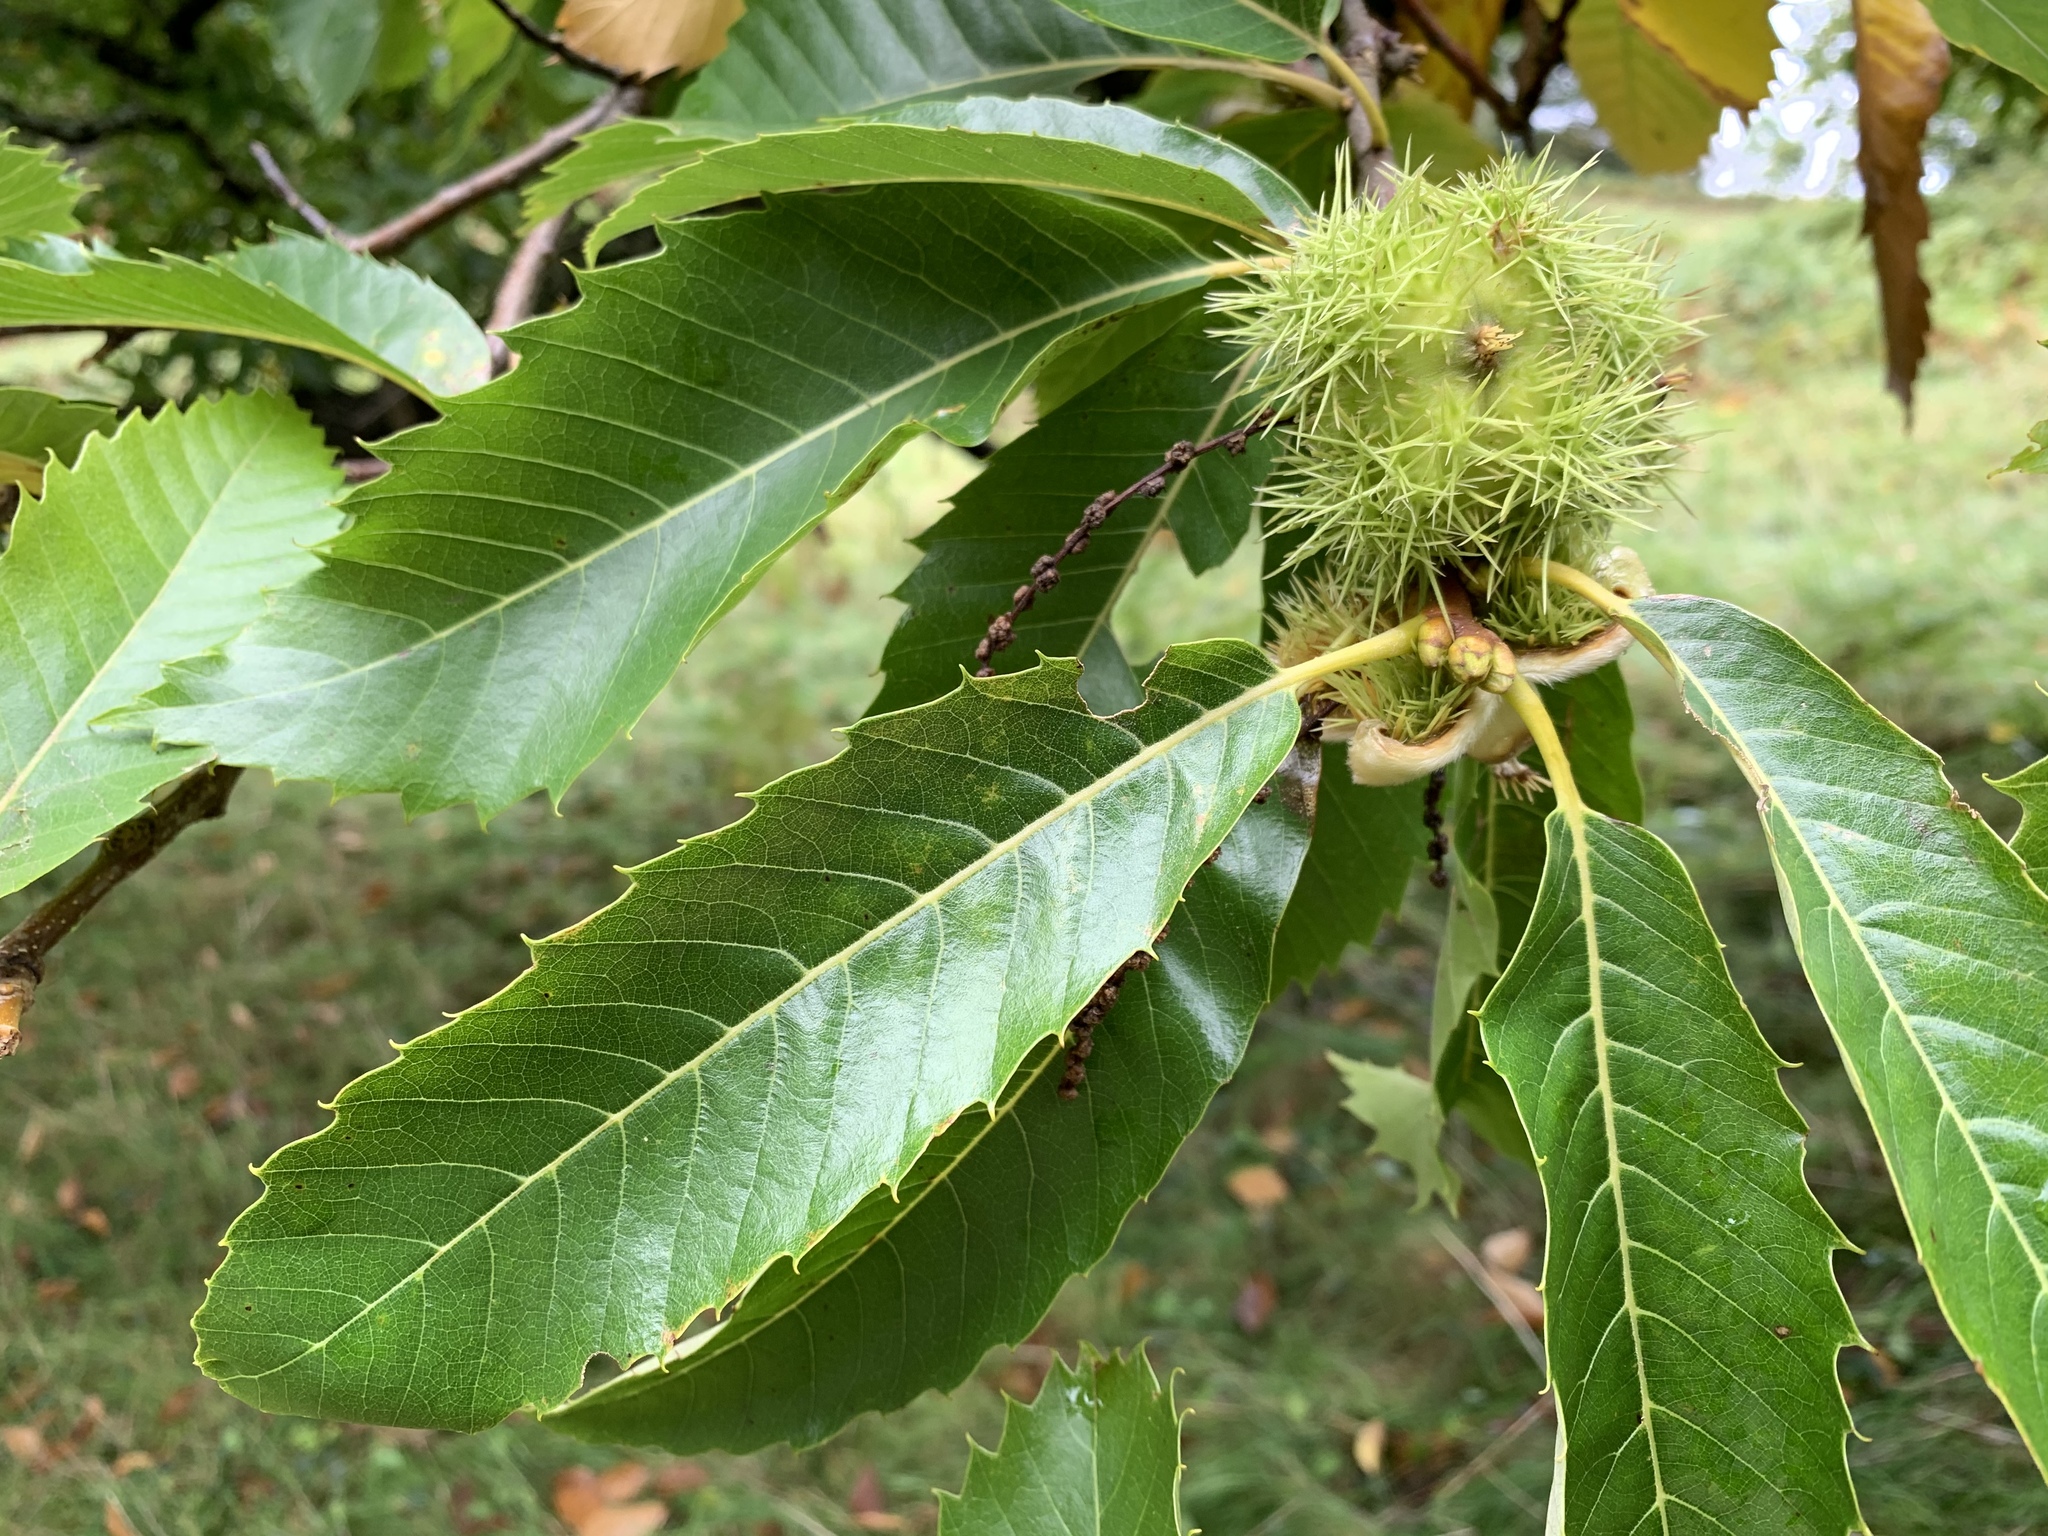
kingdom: Plantae
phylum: Tracheophyta
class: Magnoliopsida
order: Fagales
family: Fagaceae
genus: Castanea
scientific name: Castanea sativa
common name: Sweet chestnut
